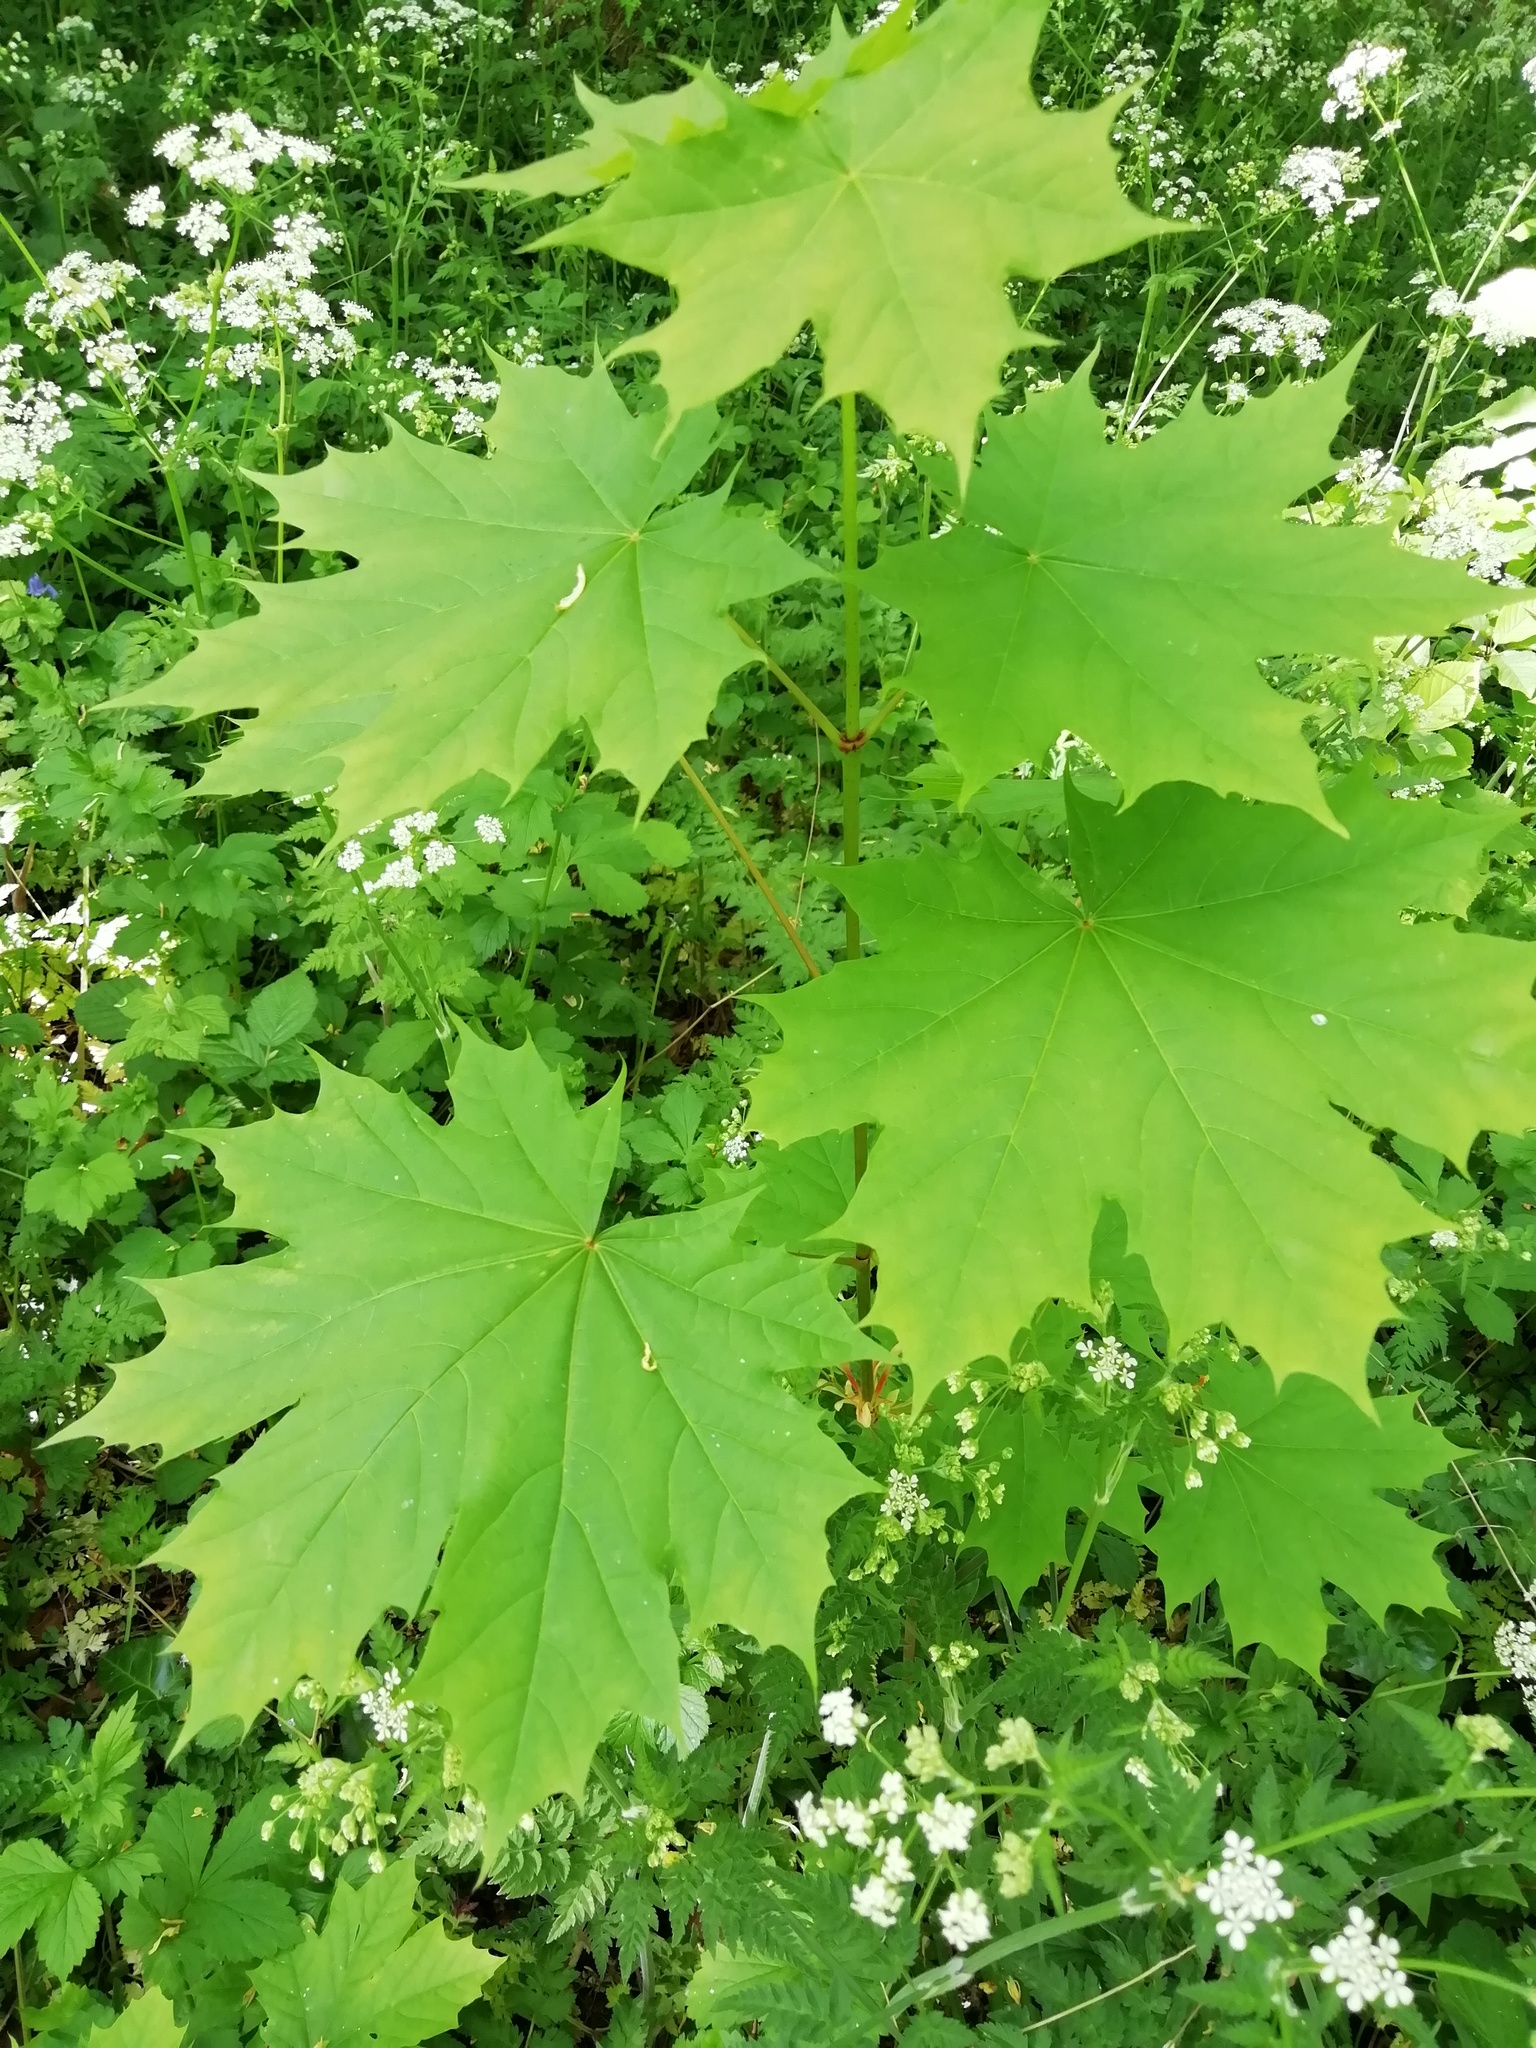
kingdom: Plantae
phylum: Tracheophyta
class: Magnoliopsida
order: Sapindales
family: Sapindaceae
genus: Acer
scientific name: Acer platanoides
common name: Norway maple
